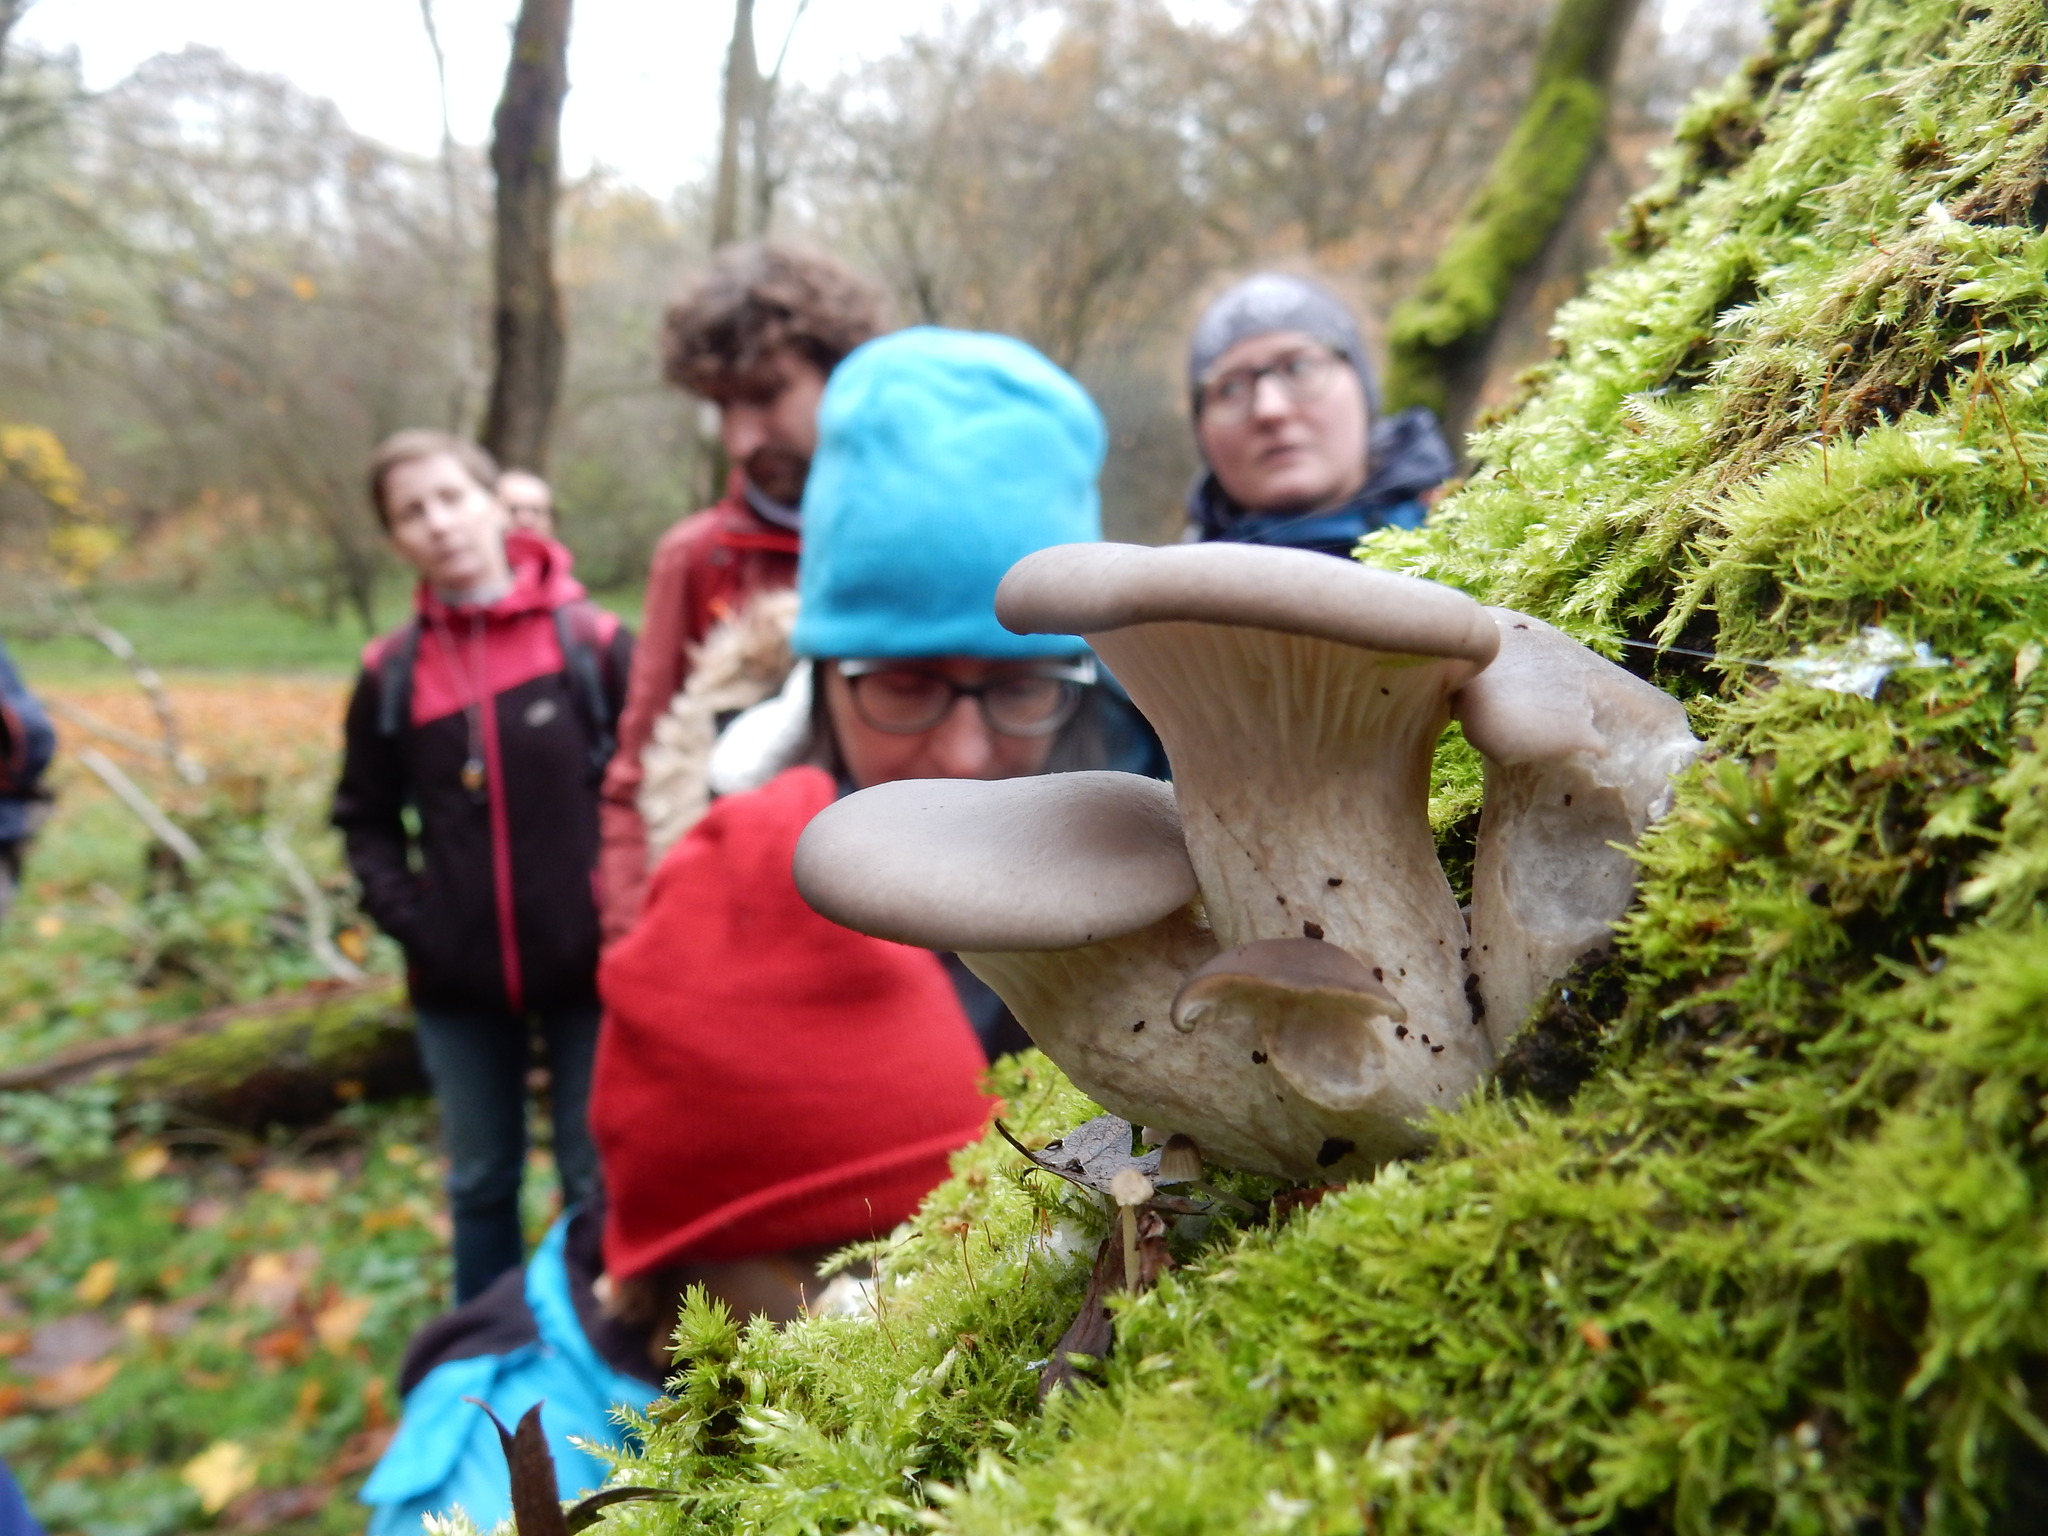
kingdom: Fungi
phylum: Basidiomycota
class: Agaricomycetes
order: Agaricales
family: Pleurotaceae
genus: Pleurotus
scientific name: Pleurotus ostreatus
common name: Oyster mushroom
